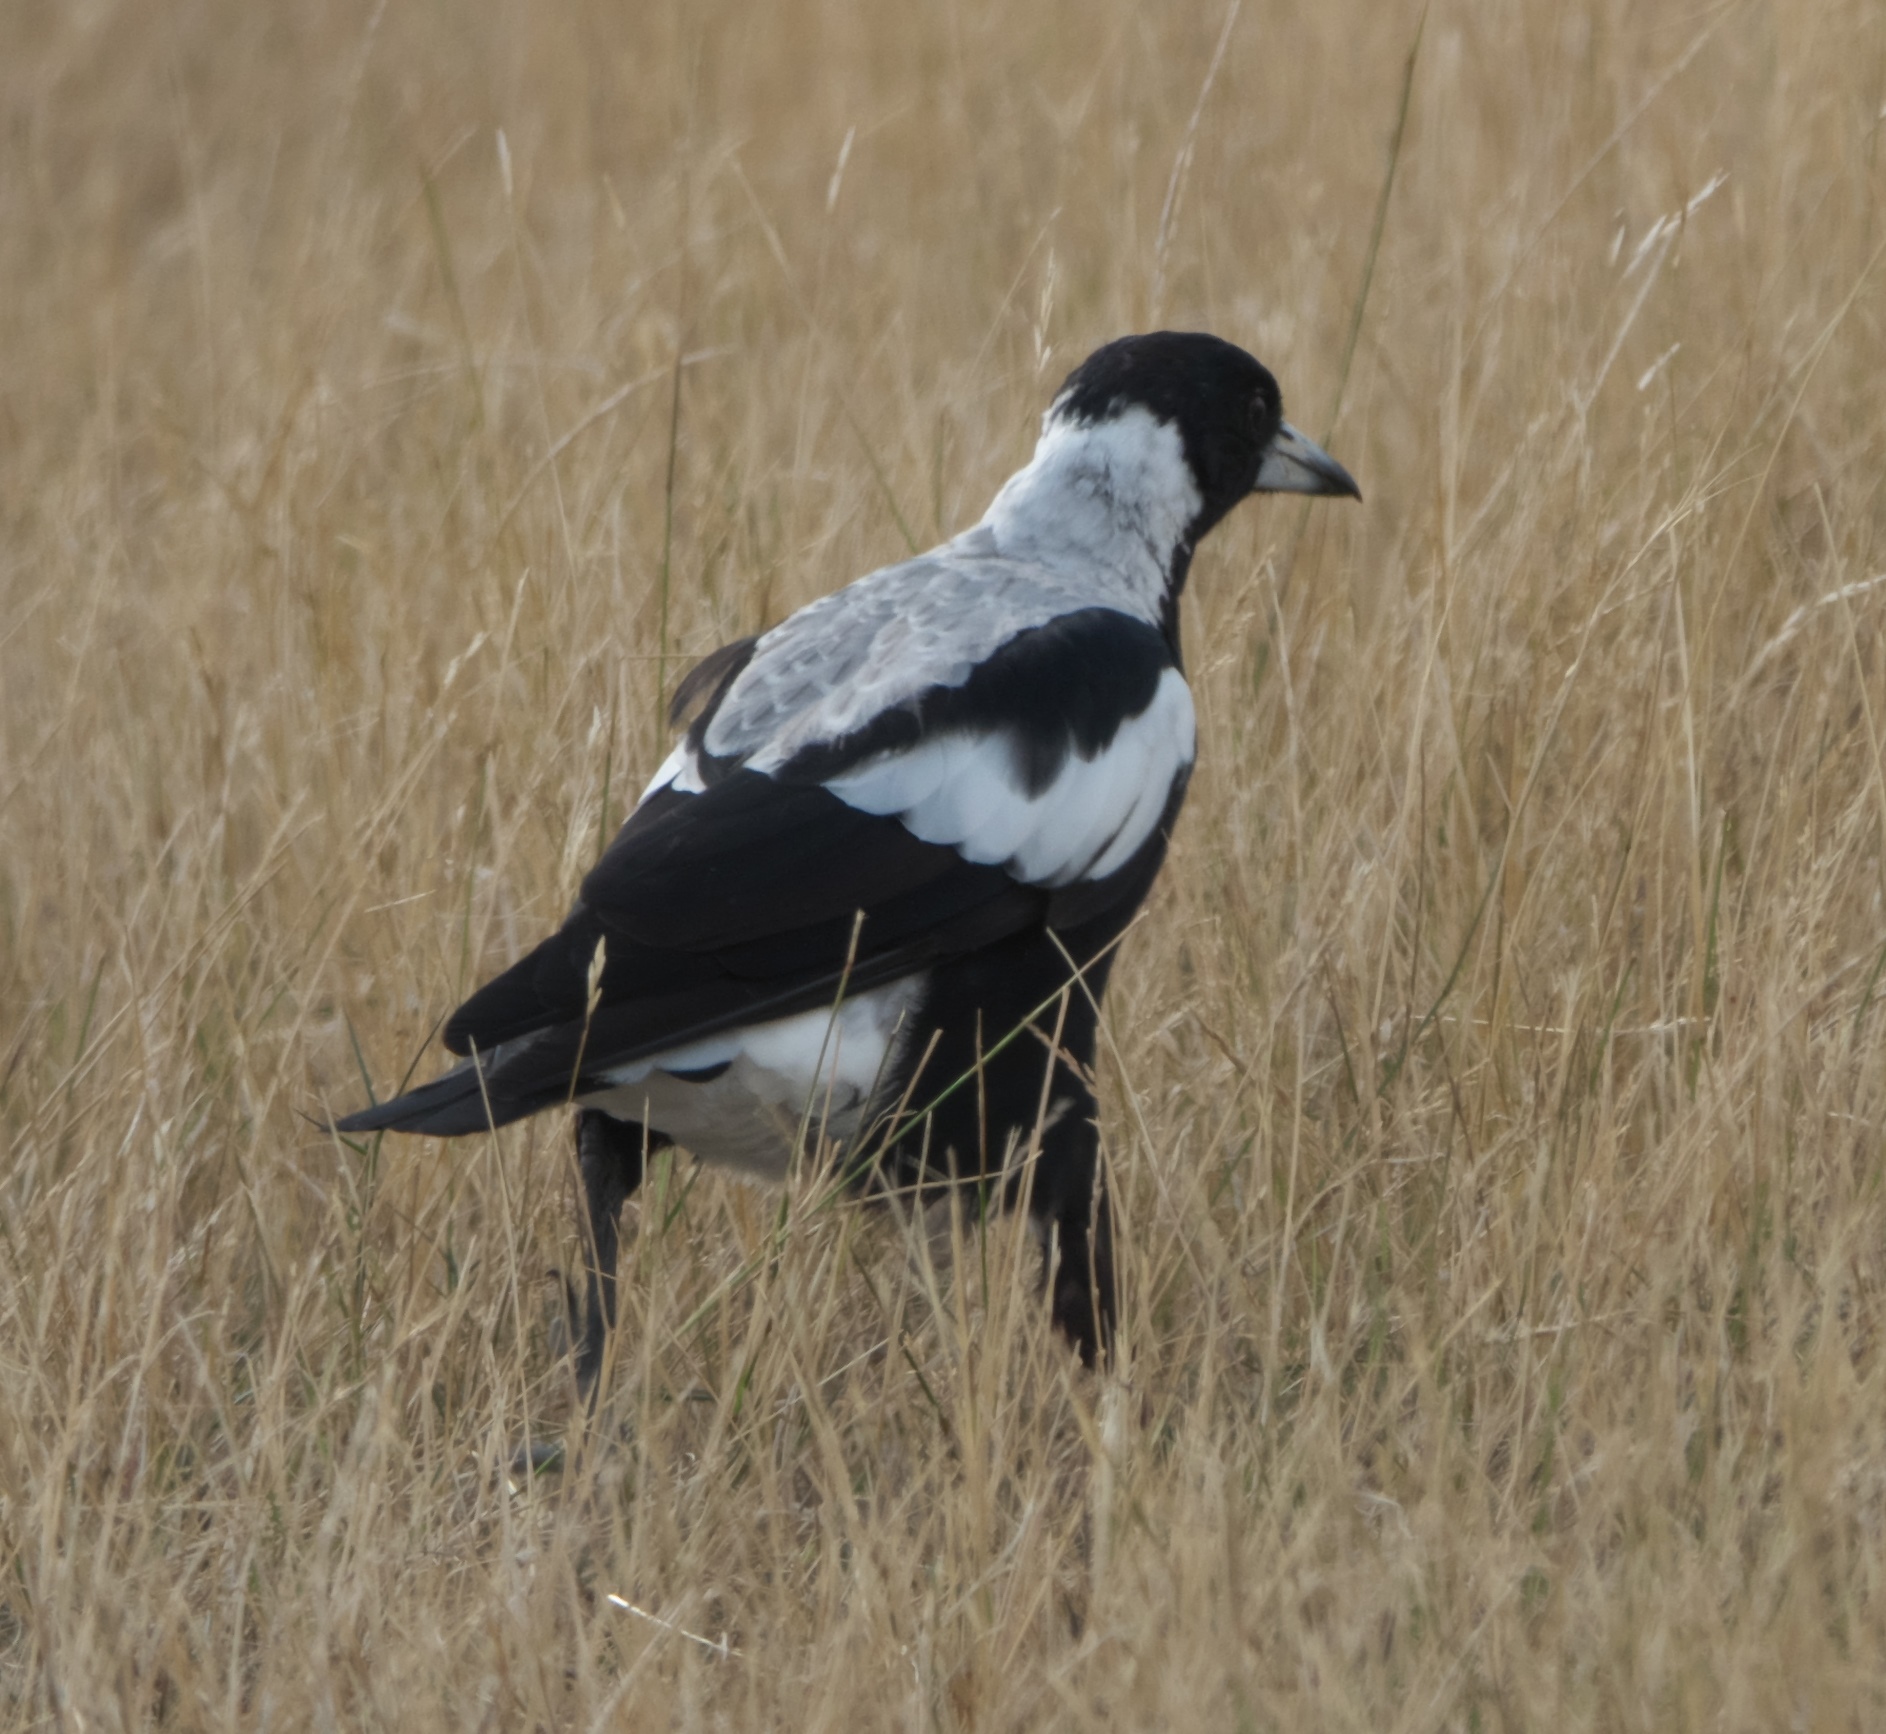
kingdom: Animalia
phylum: Chordata
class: Aves
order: Passeriformes
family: Cracticidae
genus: Gymnorhina
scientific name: Gymnorhina tibicen
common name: Australian magpie
